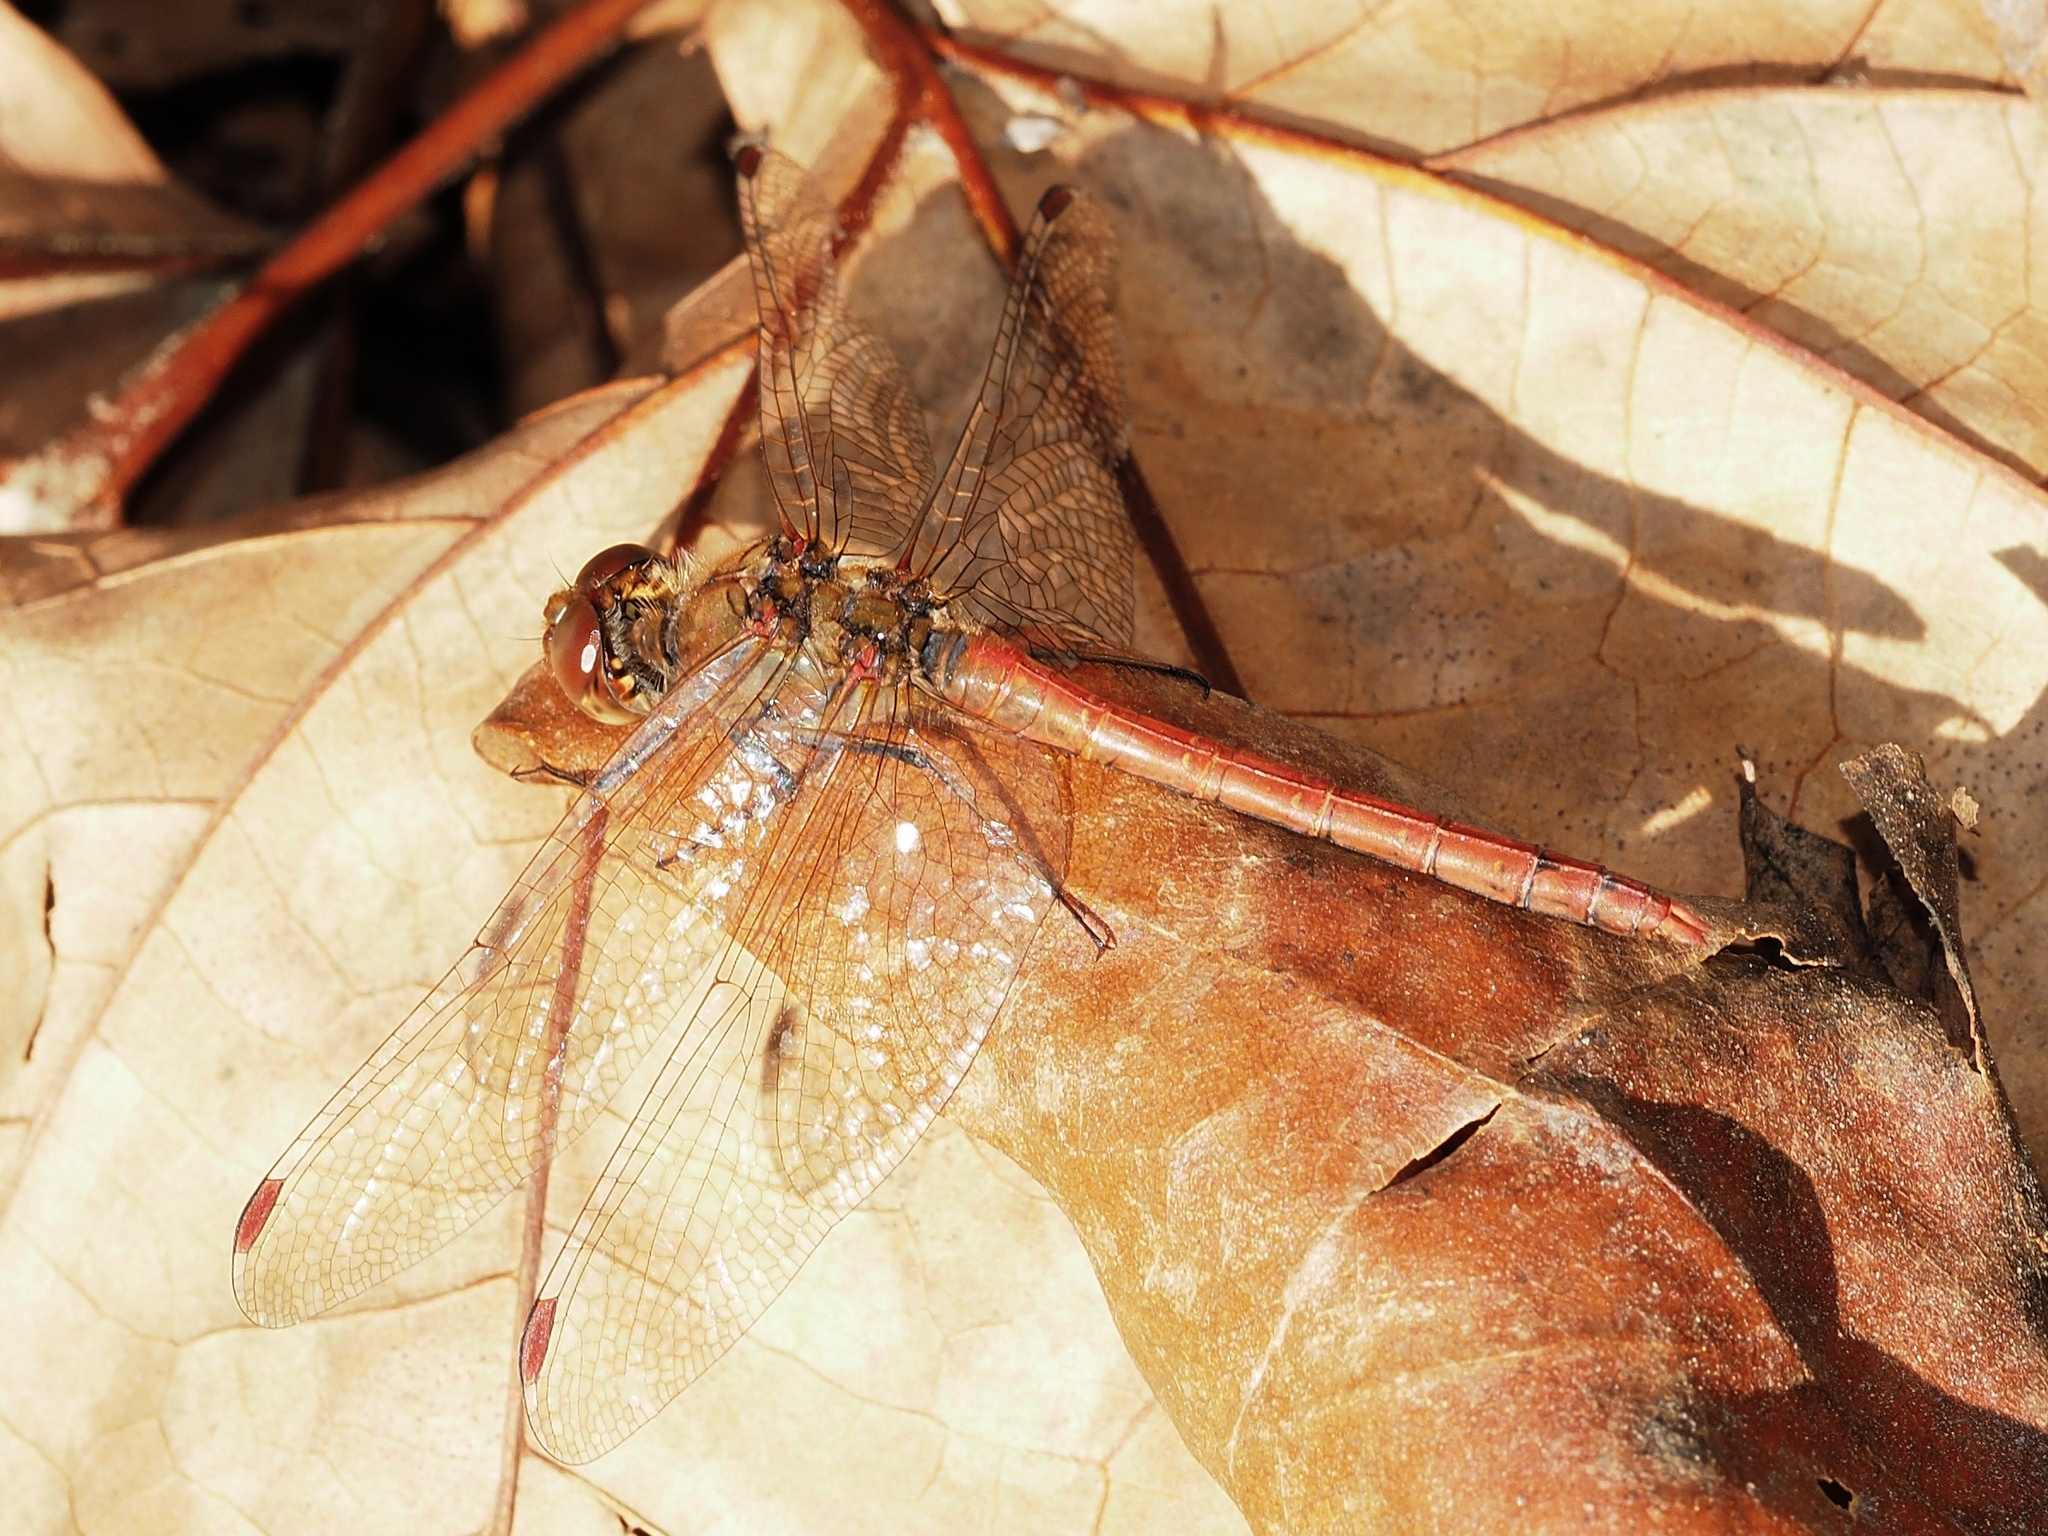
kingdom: Animalia
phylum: Arthropoda
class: Insecta
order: Odonata
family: Libellulidae
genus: Sympetrum
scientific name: Sympetrum striolatum
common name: Common darter
